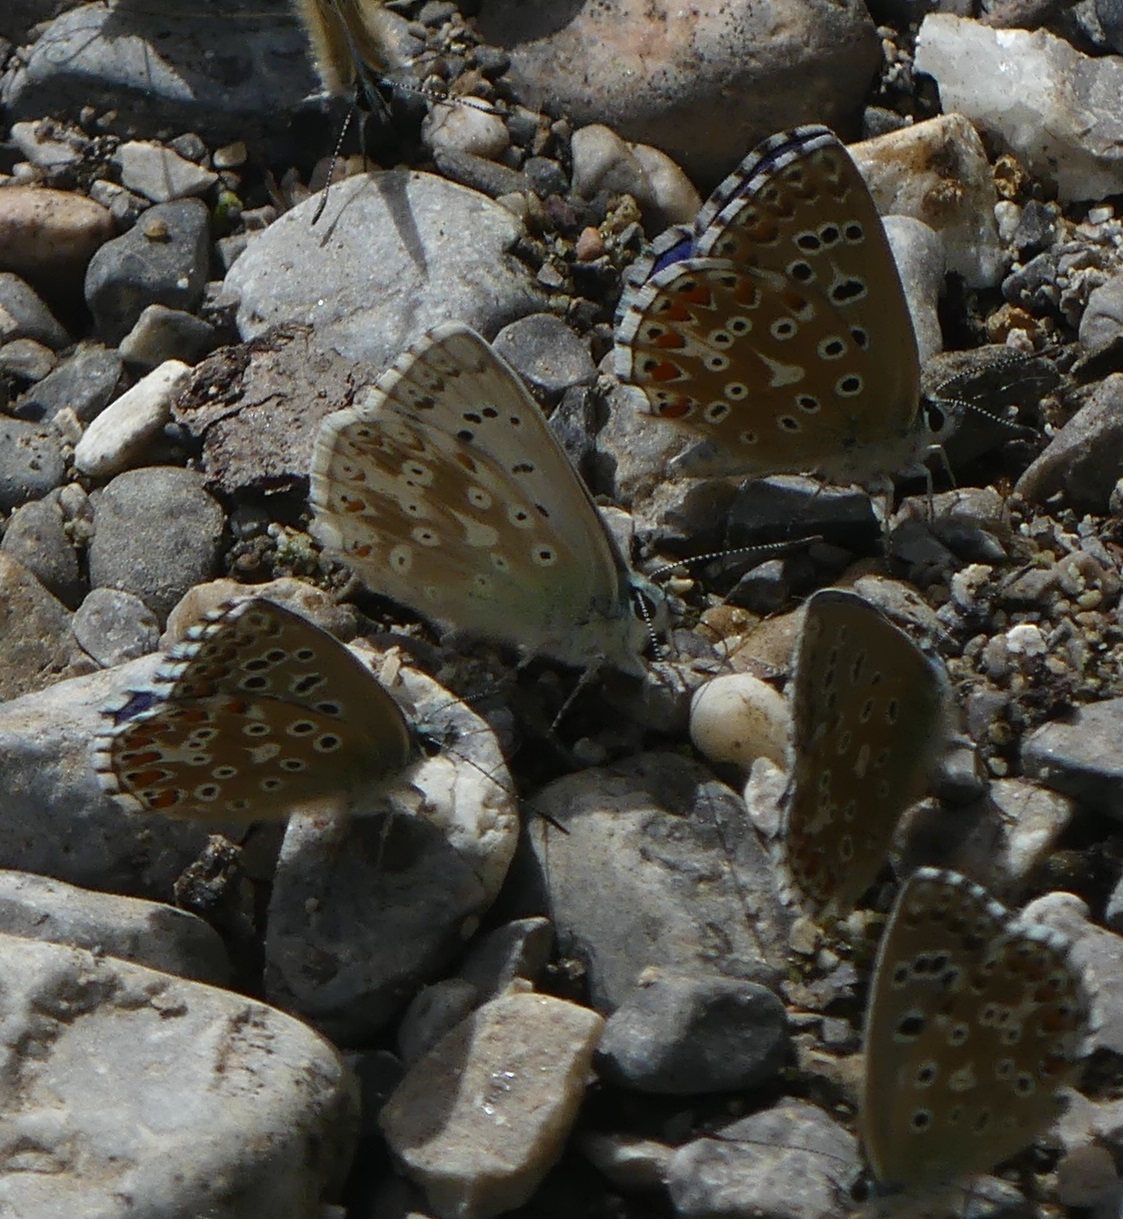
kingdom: Animalia
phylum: Arthropoda
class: Insecta
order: Lepidoptera
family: Lycaenidae
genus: Lysandra
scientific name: Lysandra coridon
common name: Chalkhill blue
